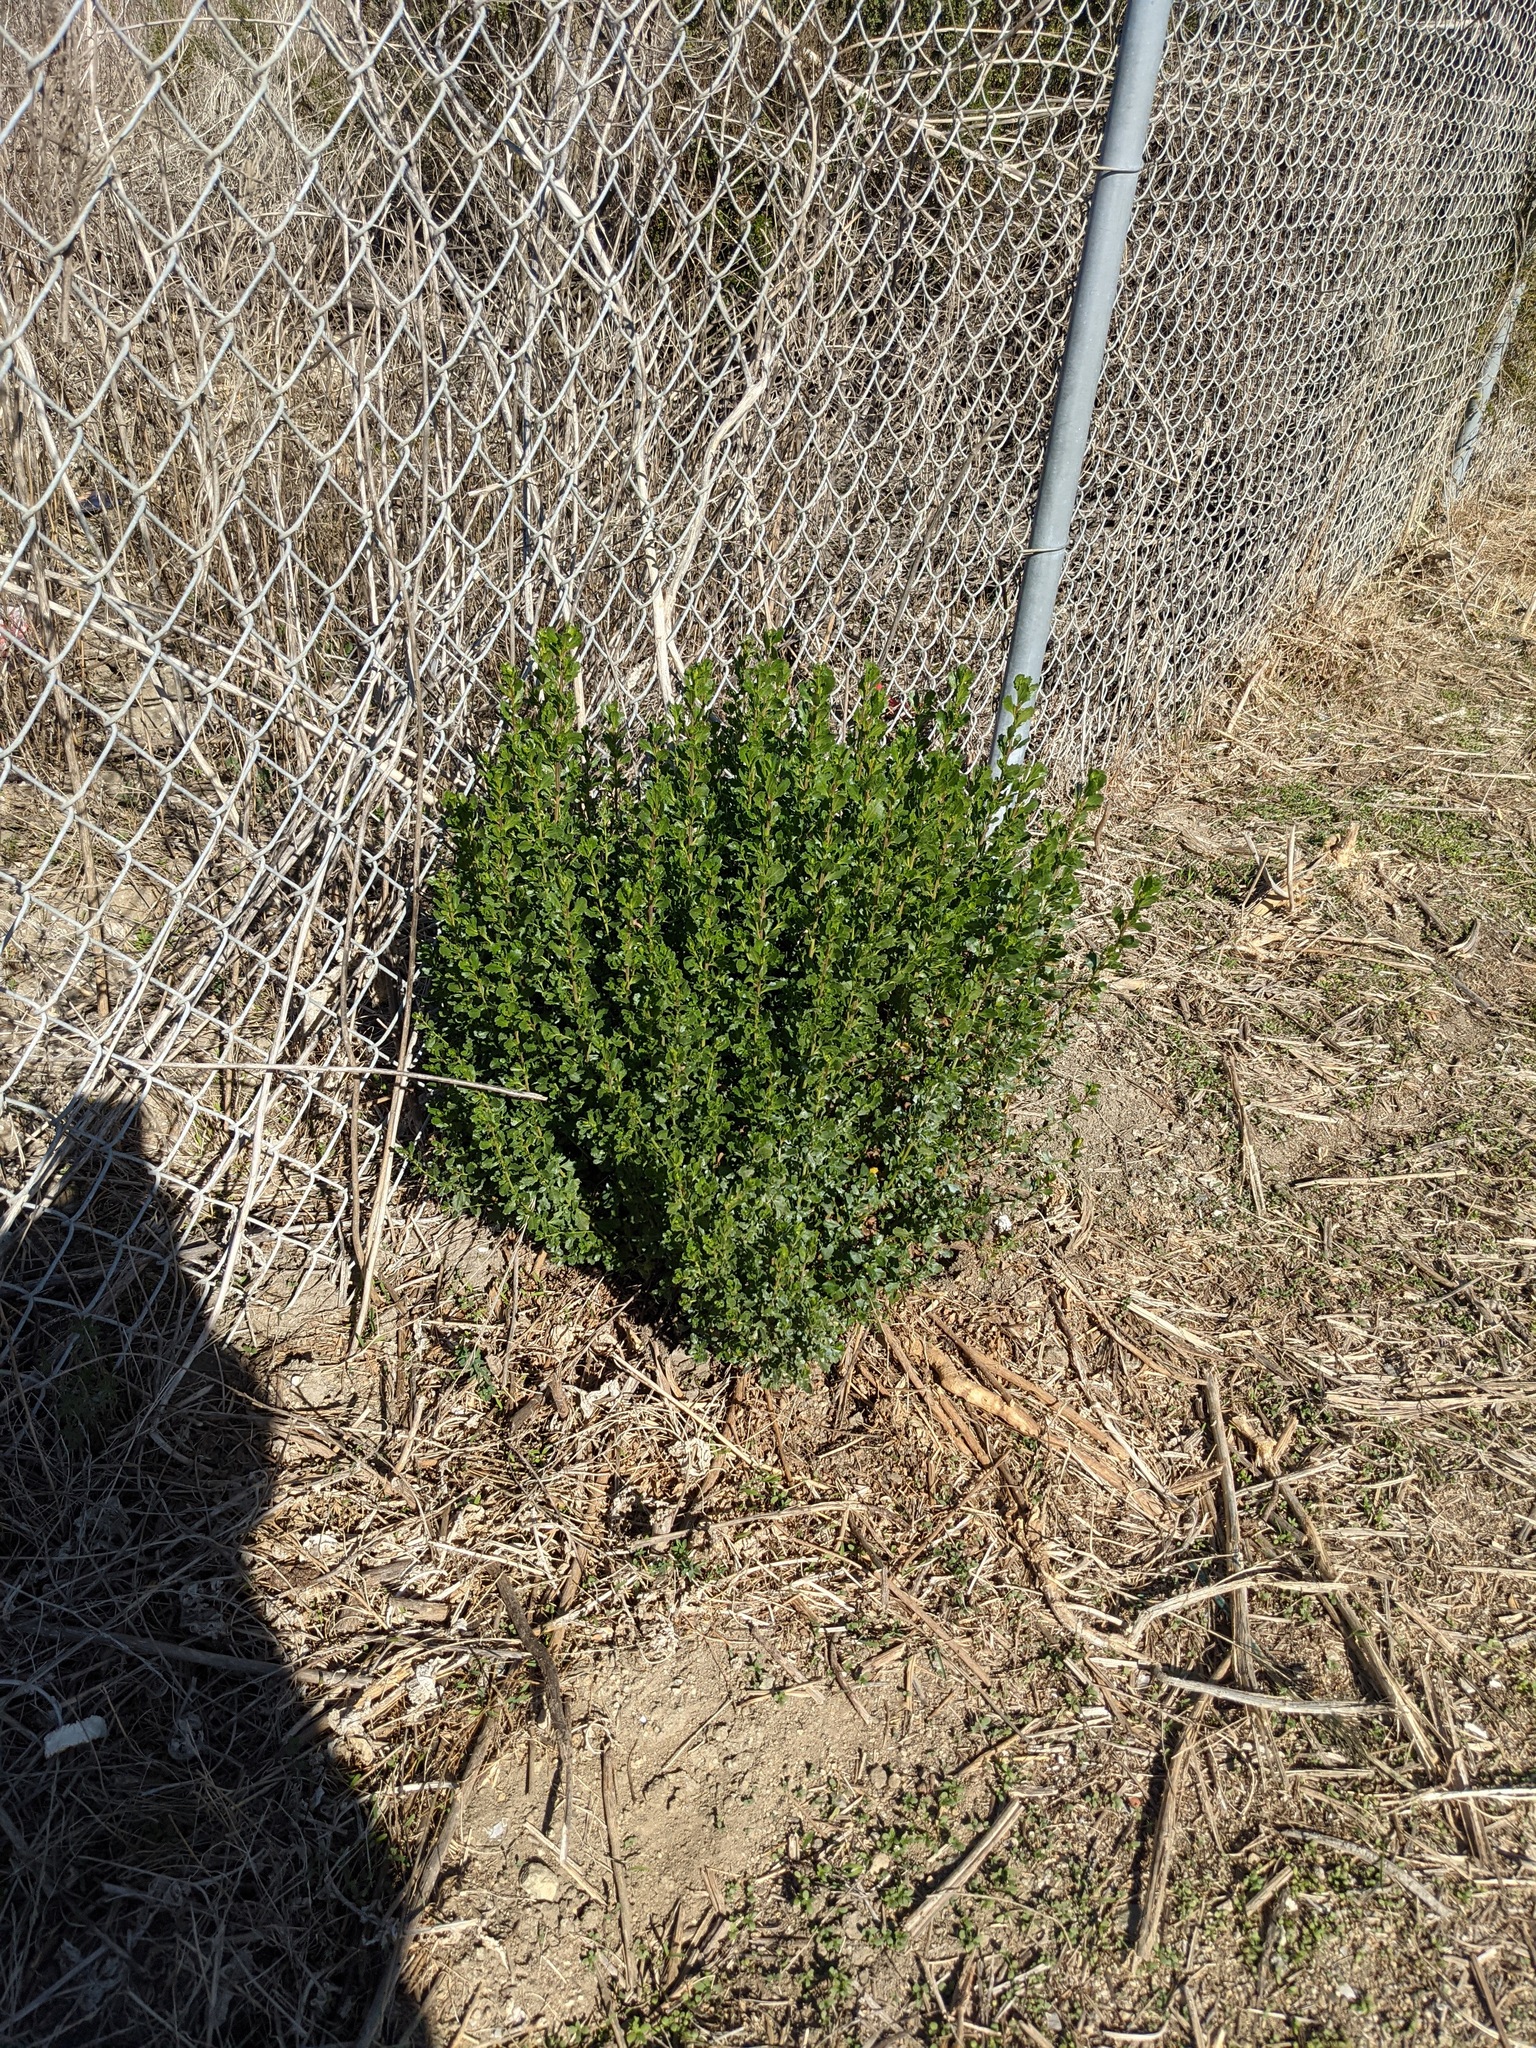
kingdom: Plantae
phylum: Tracheophyta
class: Magnoliopsida
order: Asterales
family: Asteraceae
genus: Baccharis
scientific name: Baccharis pilularis
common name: Coyotebrush
